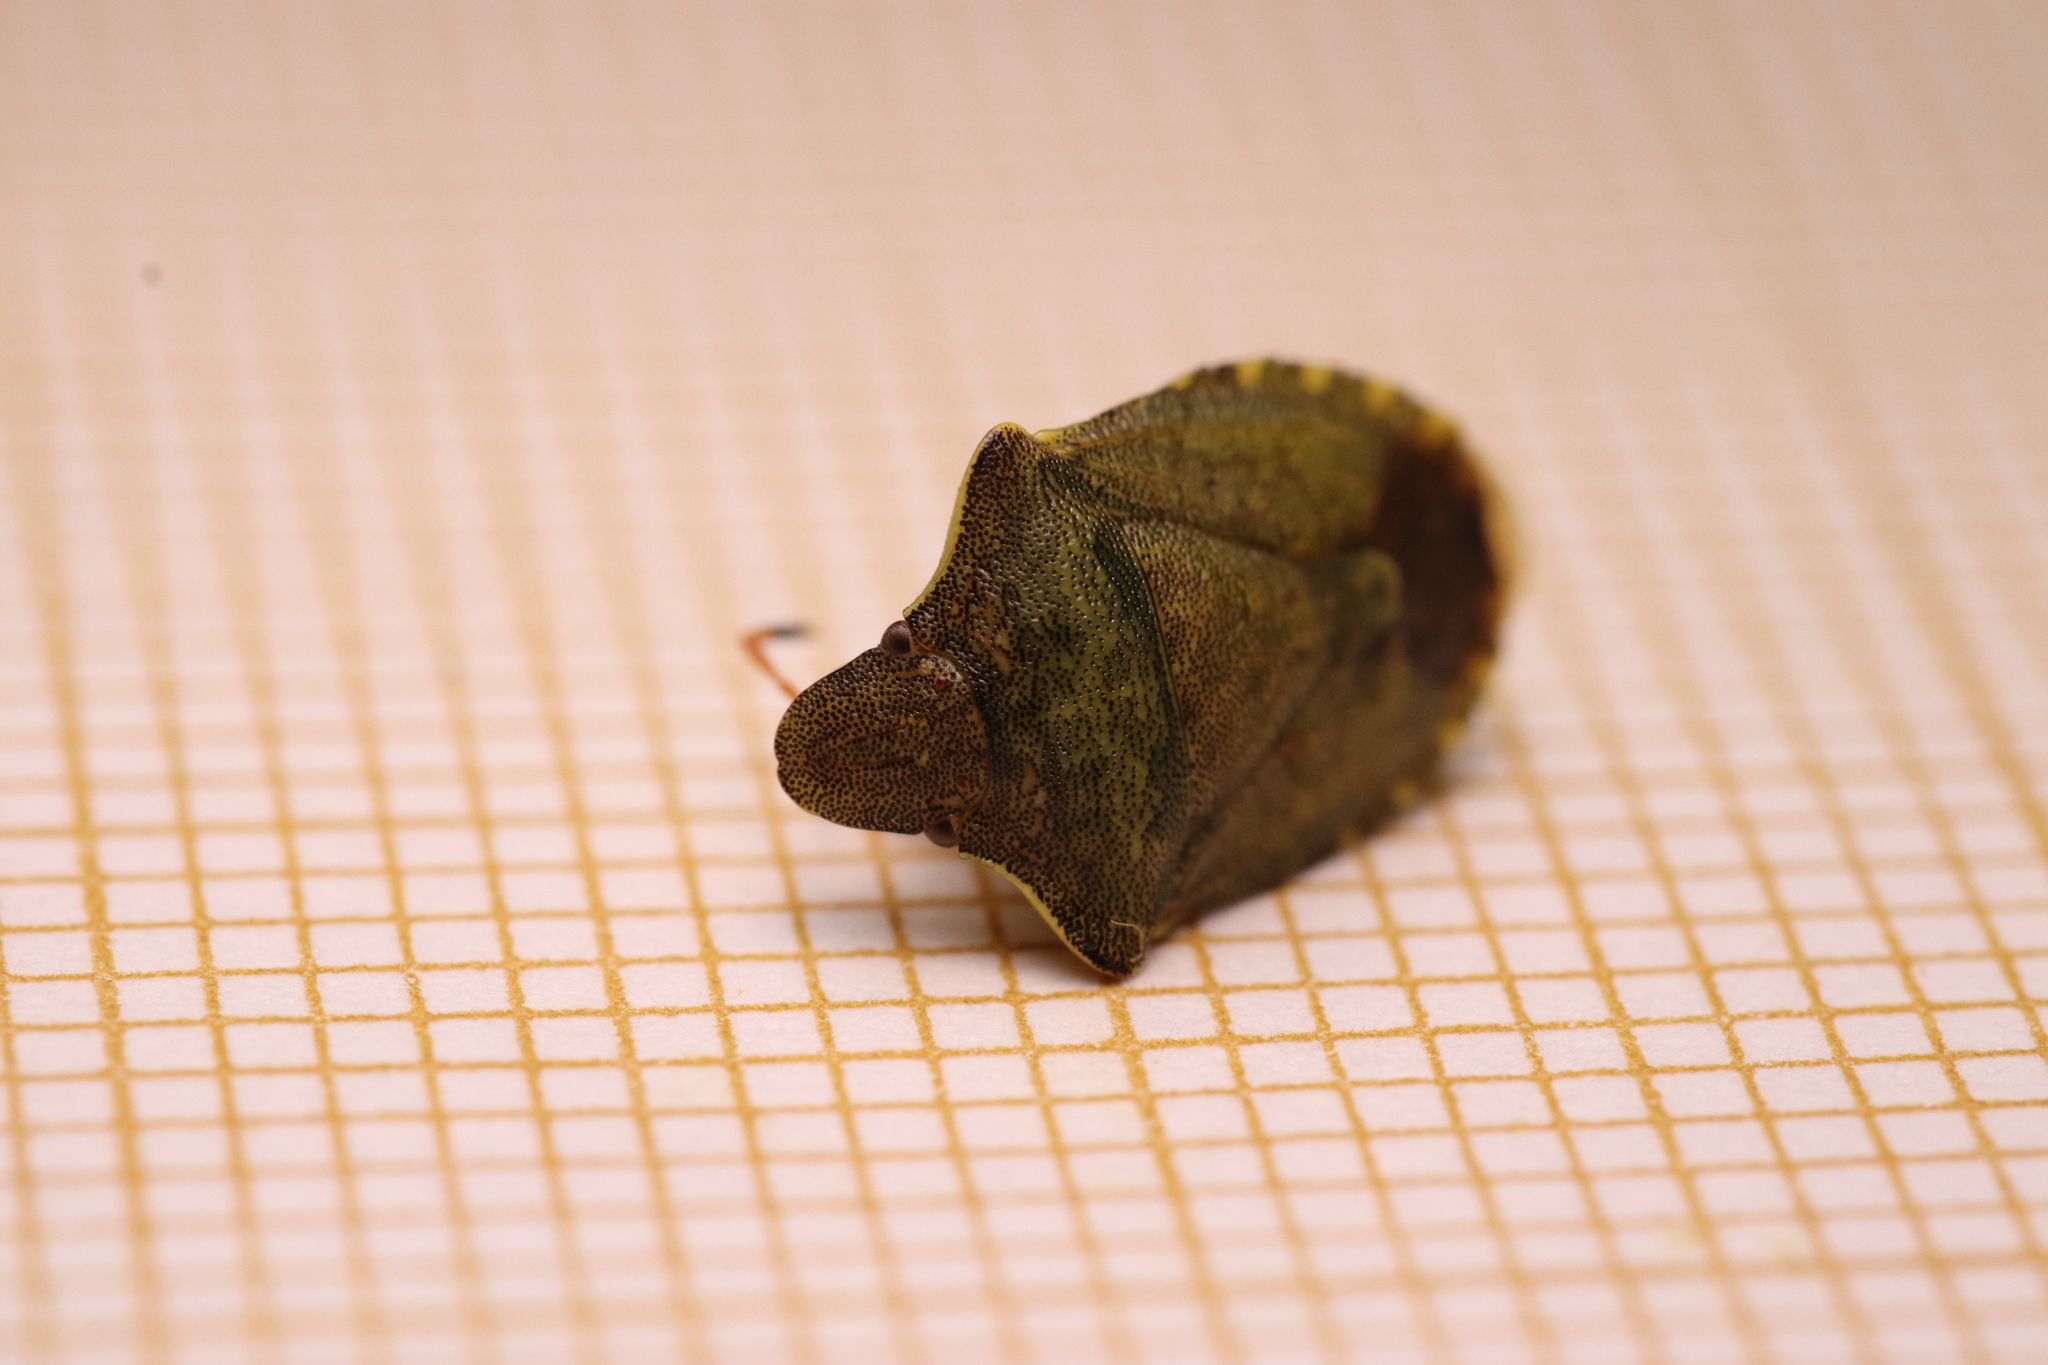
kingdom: Animalia
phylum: Arthropoda
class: Insecta
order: Hemiptera
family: Pentatomidae
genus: Holcostethus
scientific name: Holcostethus strictus
